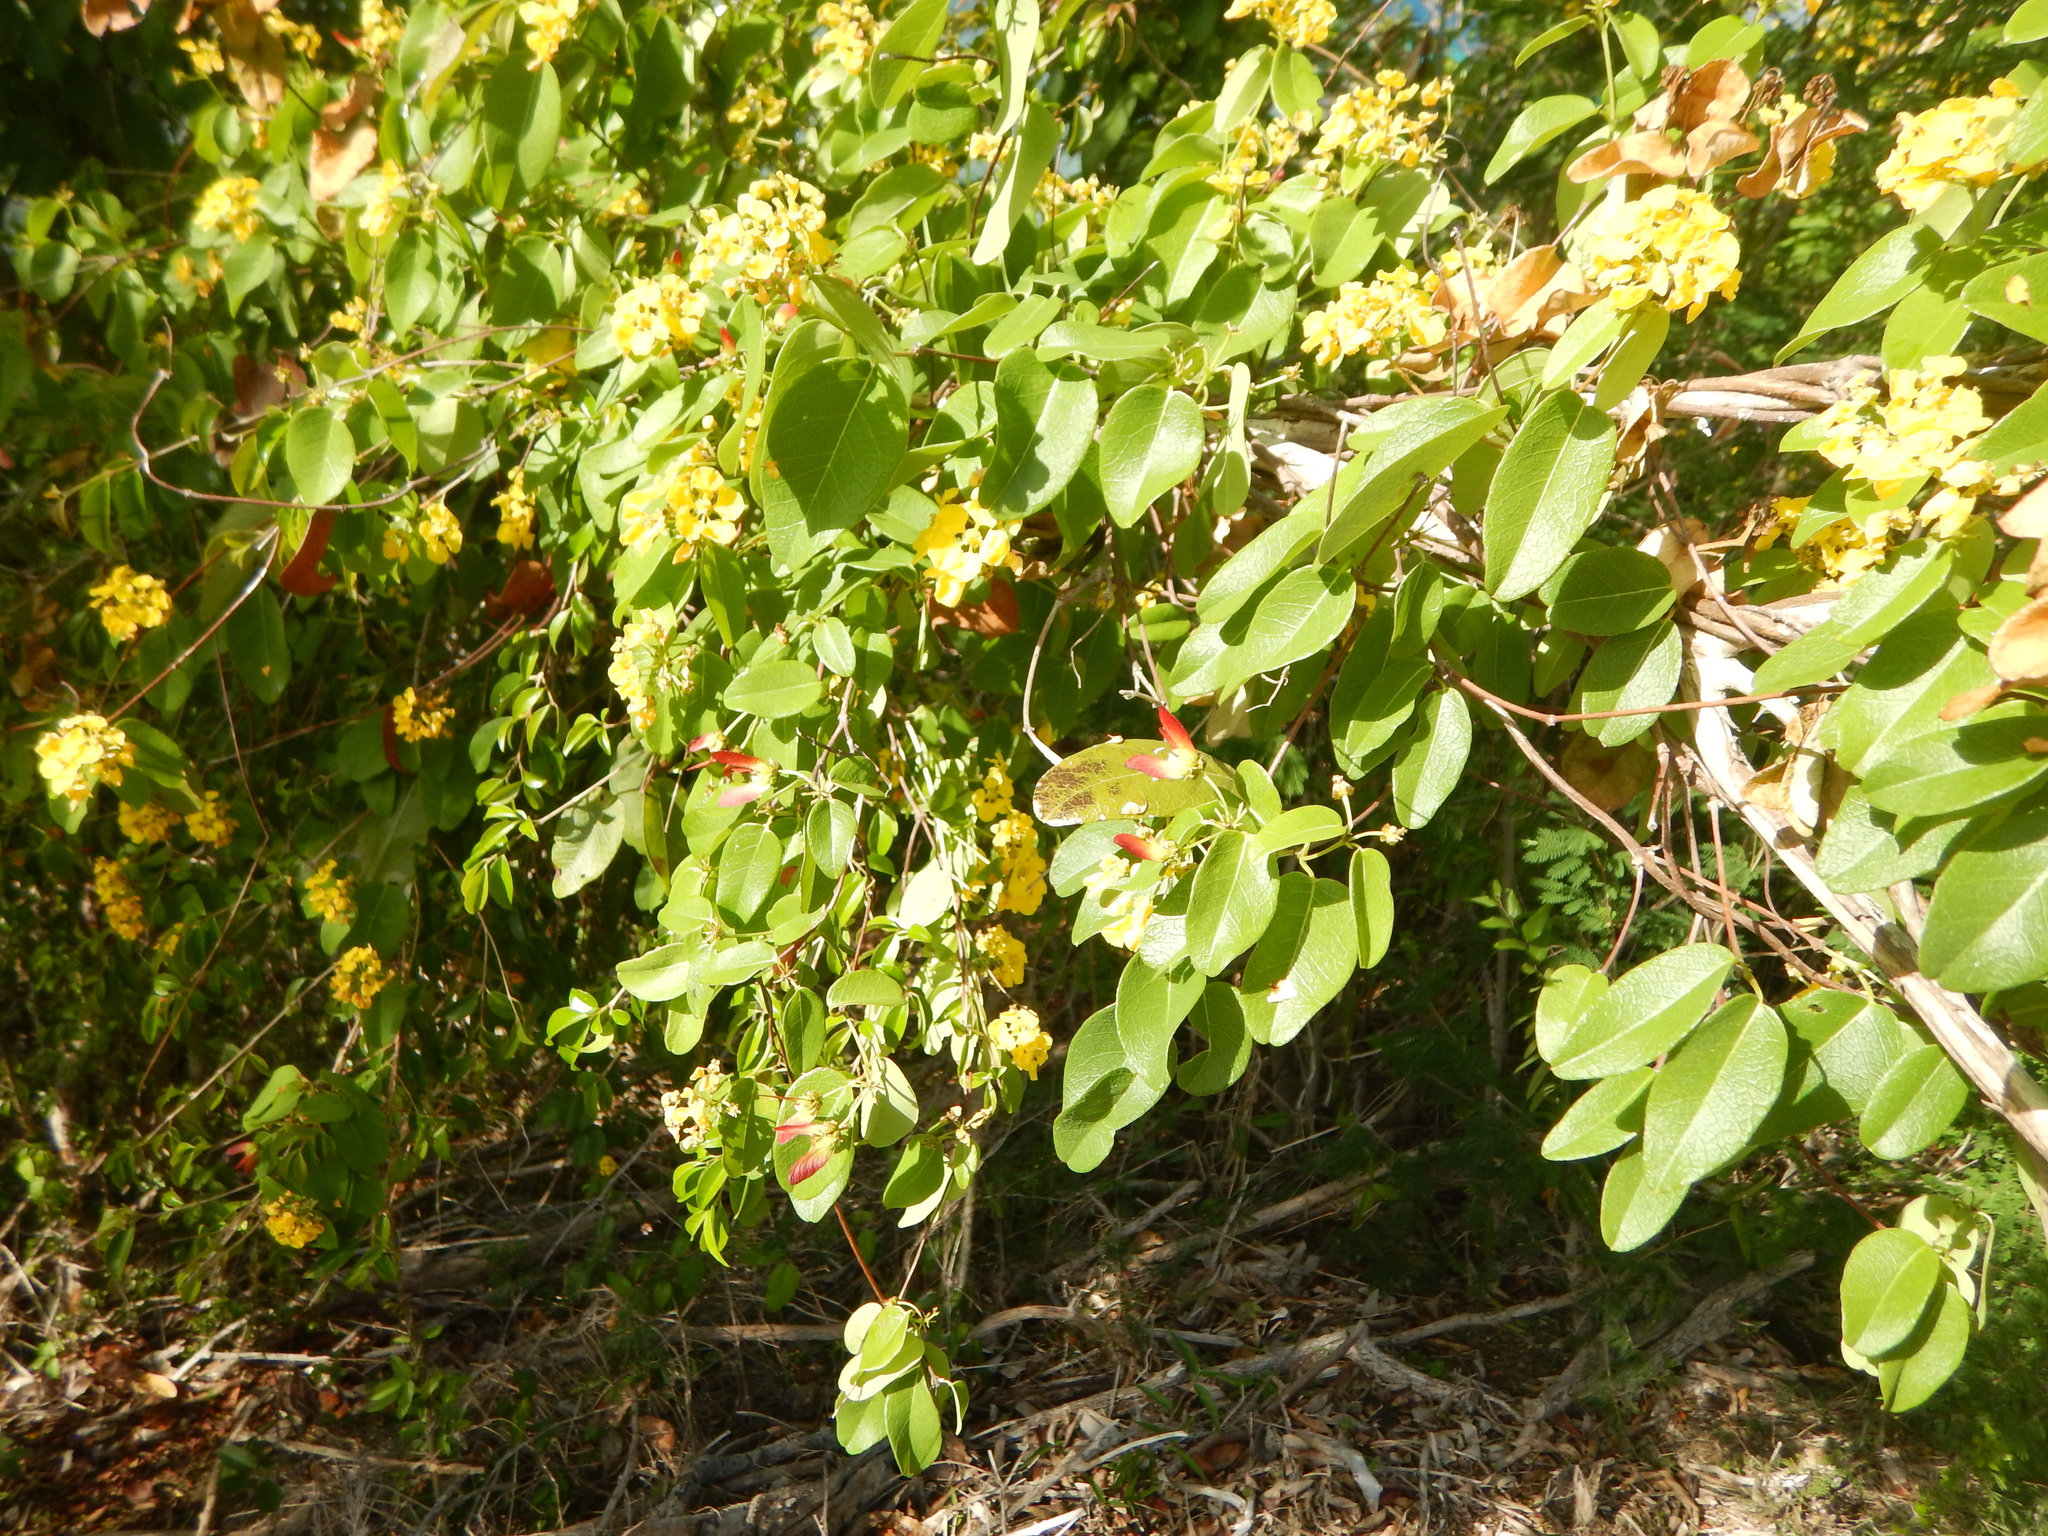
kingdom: Plantae
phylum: Tracheophyta
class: Magnoliopsida
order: Malpighiales
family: Malpighiaceae
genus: Stigmaphyllon
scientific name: Stigmaphyllon emarginatum
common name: Monarch amazonvine
